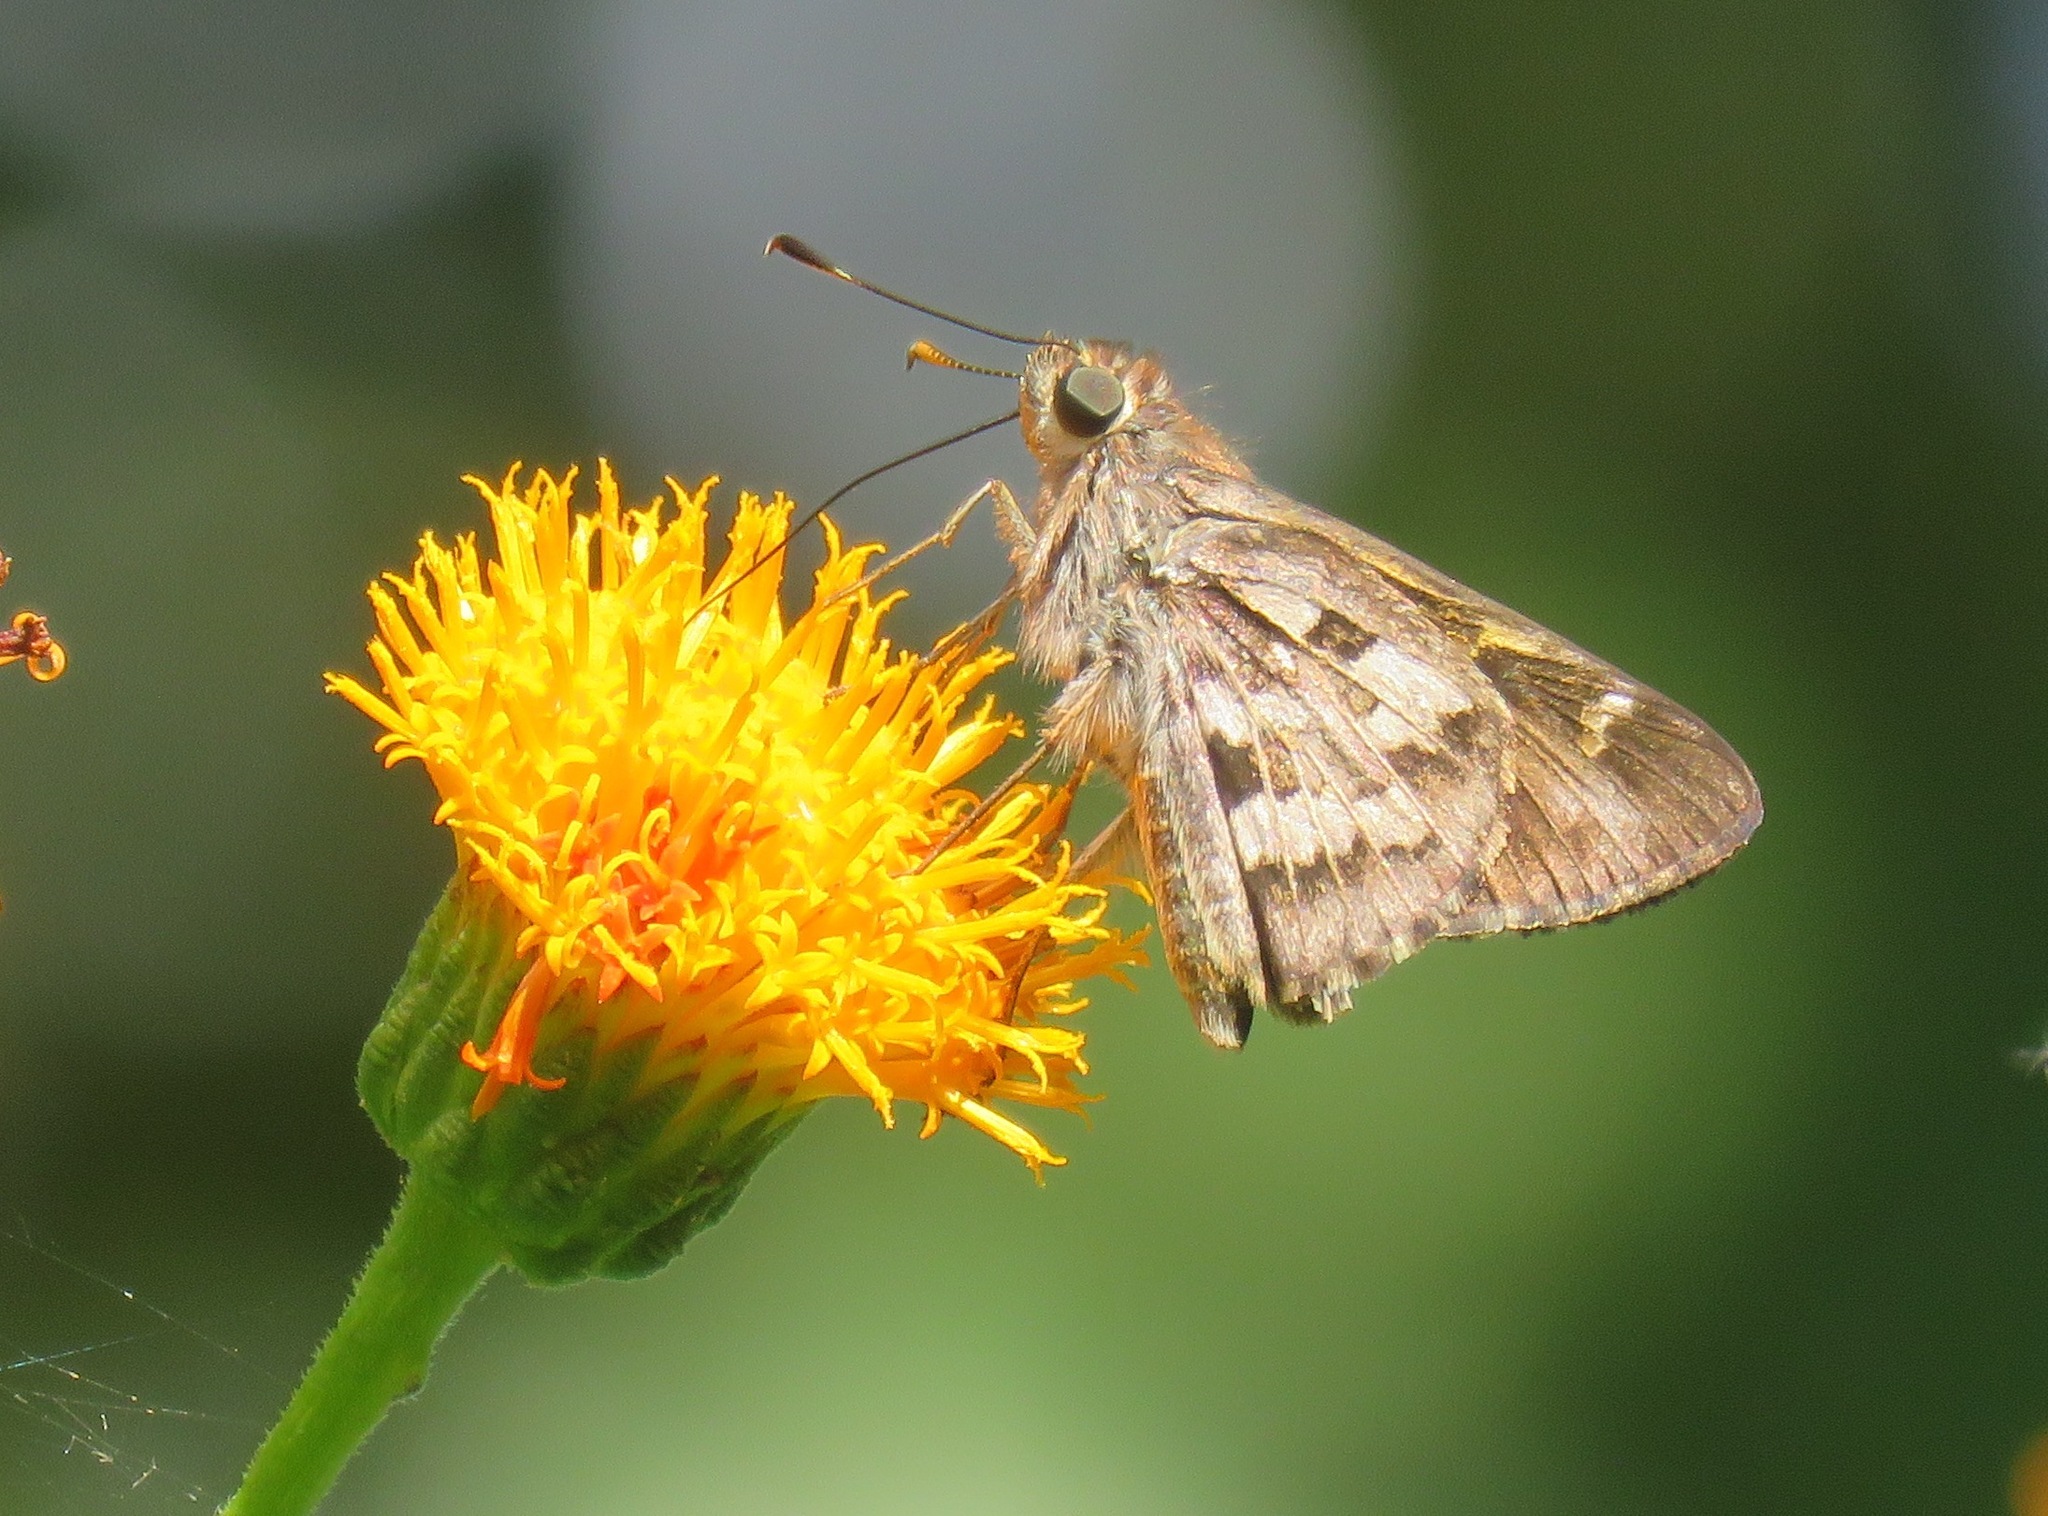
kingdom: Animalia
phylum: Arthropoda
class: Insecta
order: Lepidoptera
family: Hesperiidae
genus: Halotus
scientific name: Halotus rica
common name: Costa rican skipper
